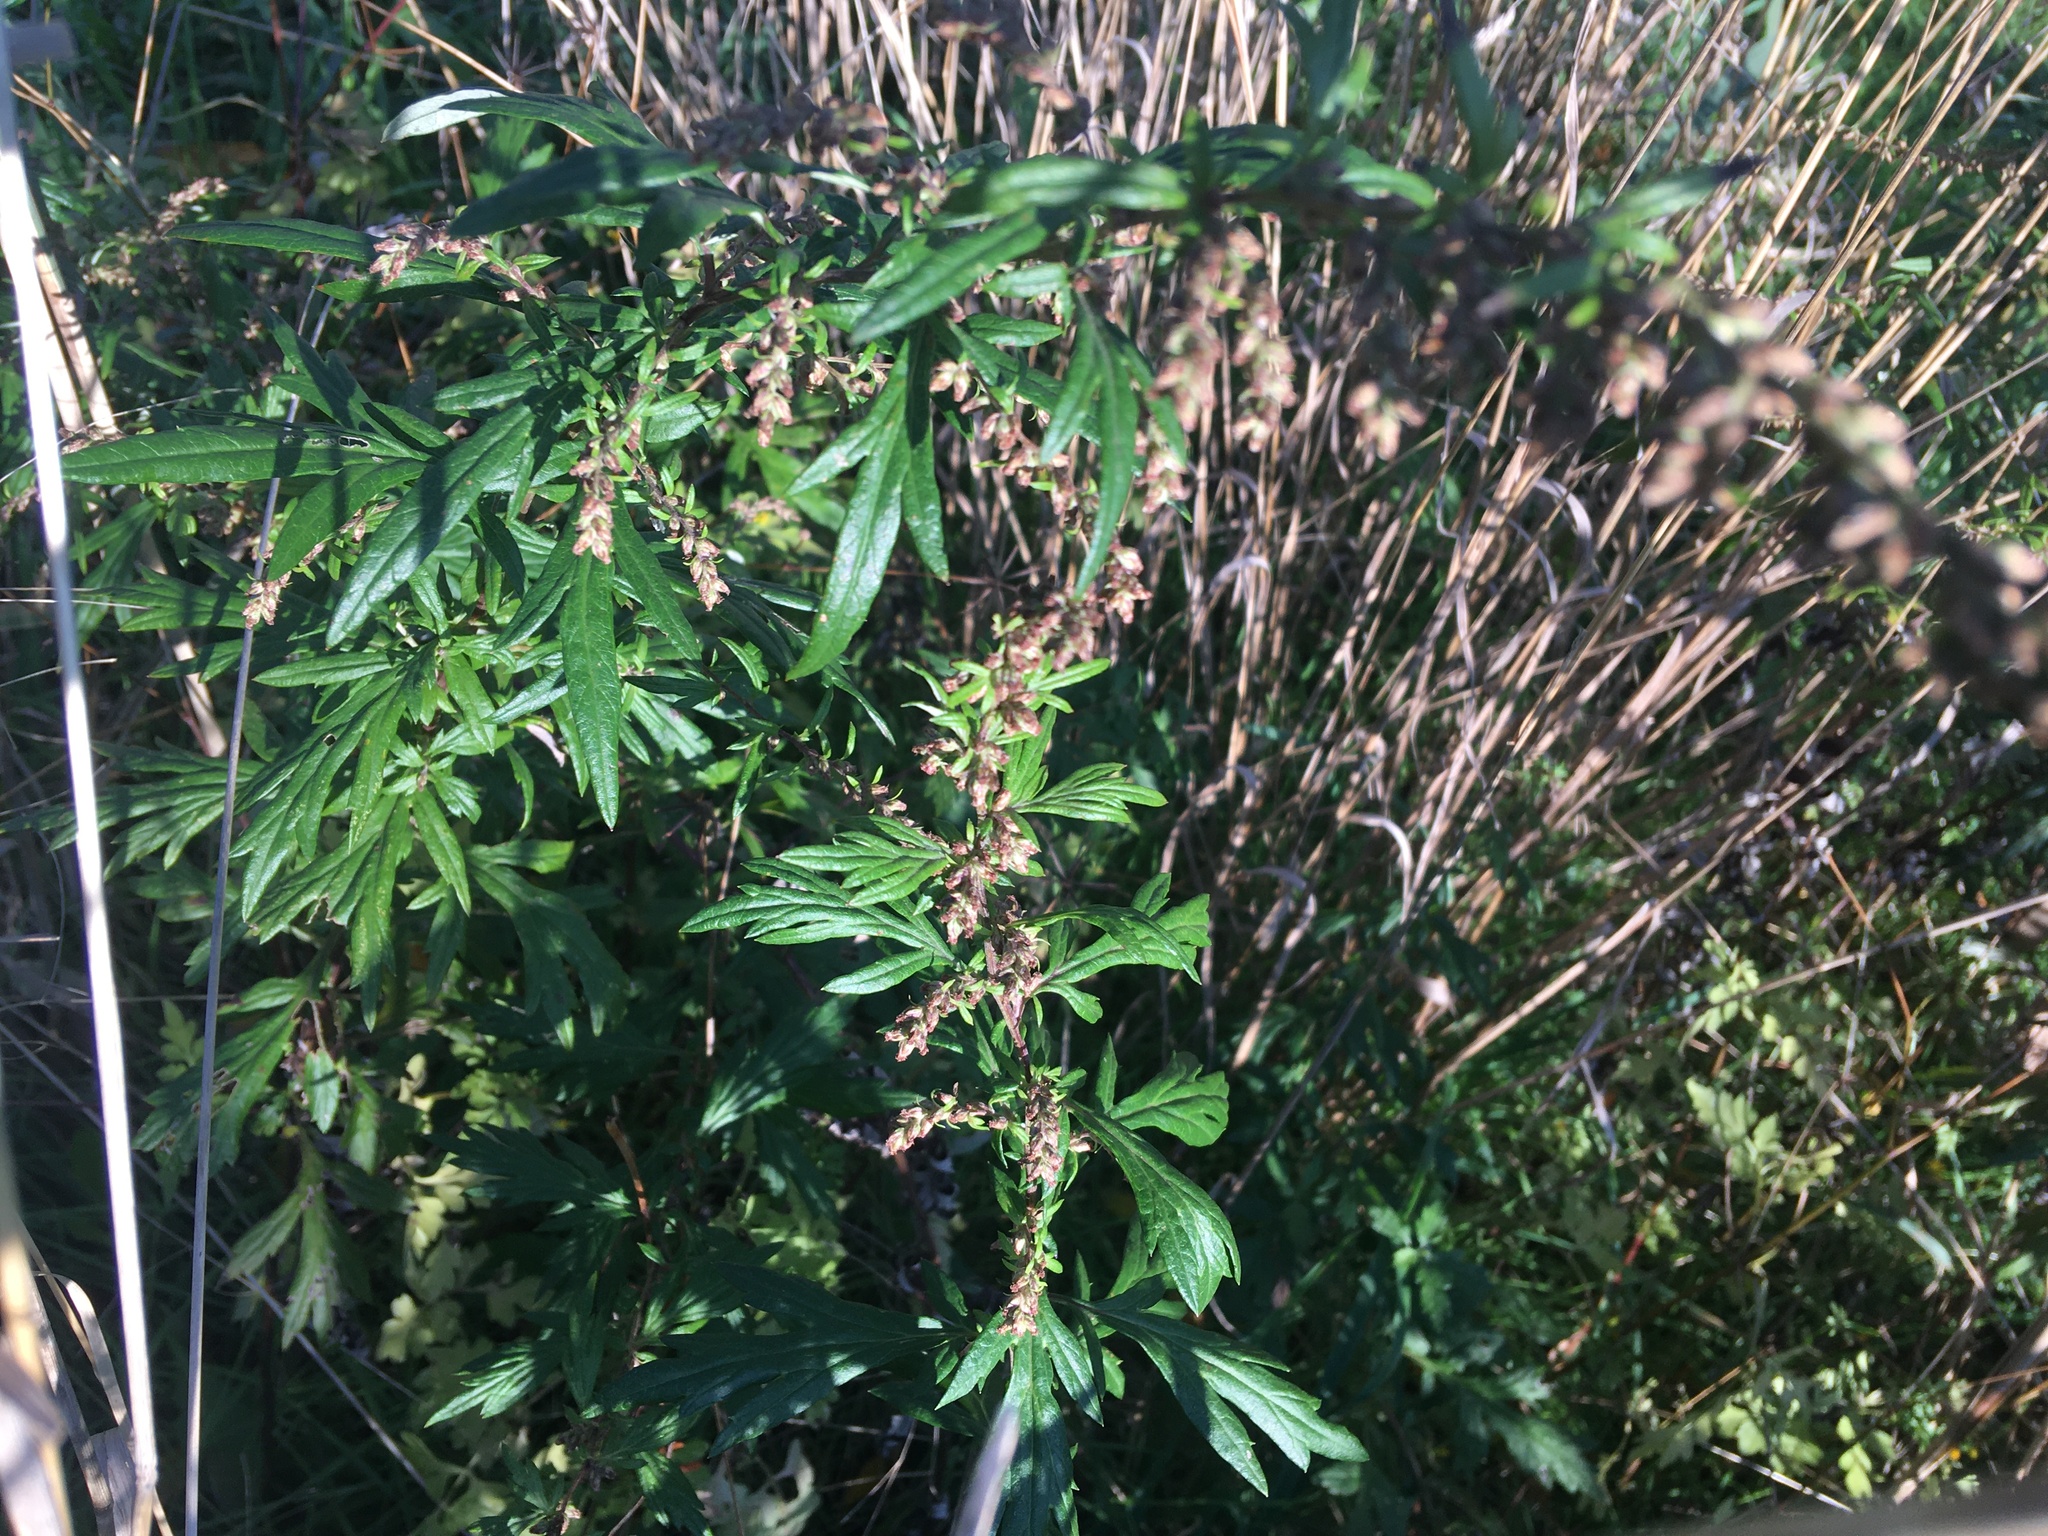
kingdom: Plantae
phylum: Tracheophyta
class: Magnoliopsida
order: Asterales
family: Asteraceae
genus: Artemisia
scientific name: Artemisia vulgaris
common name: Mugwort
